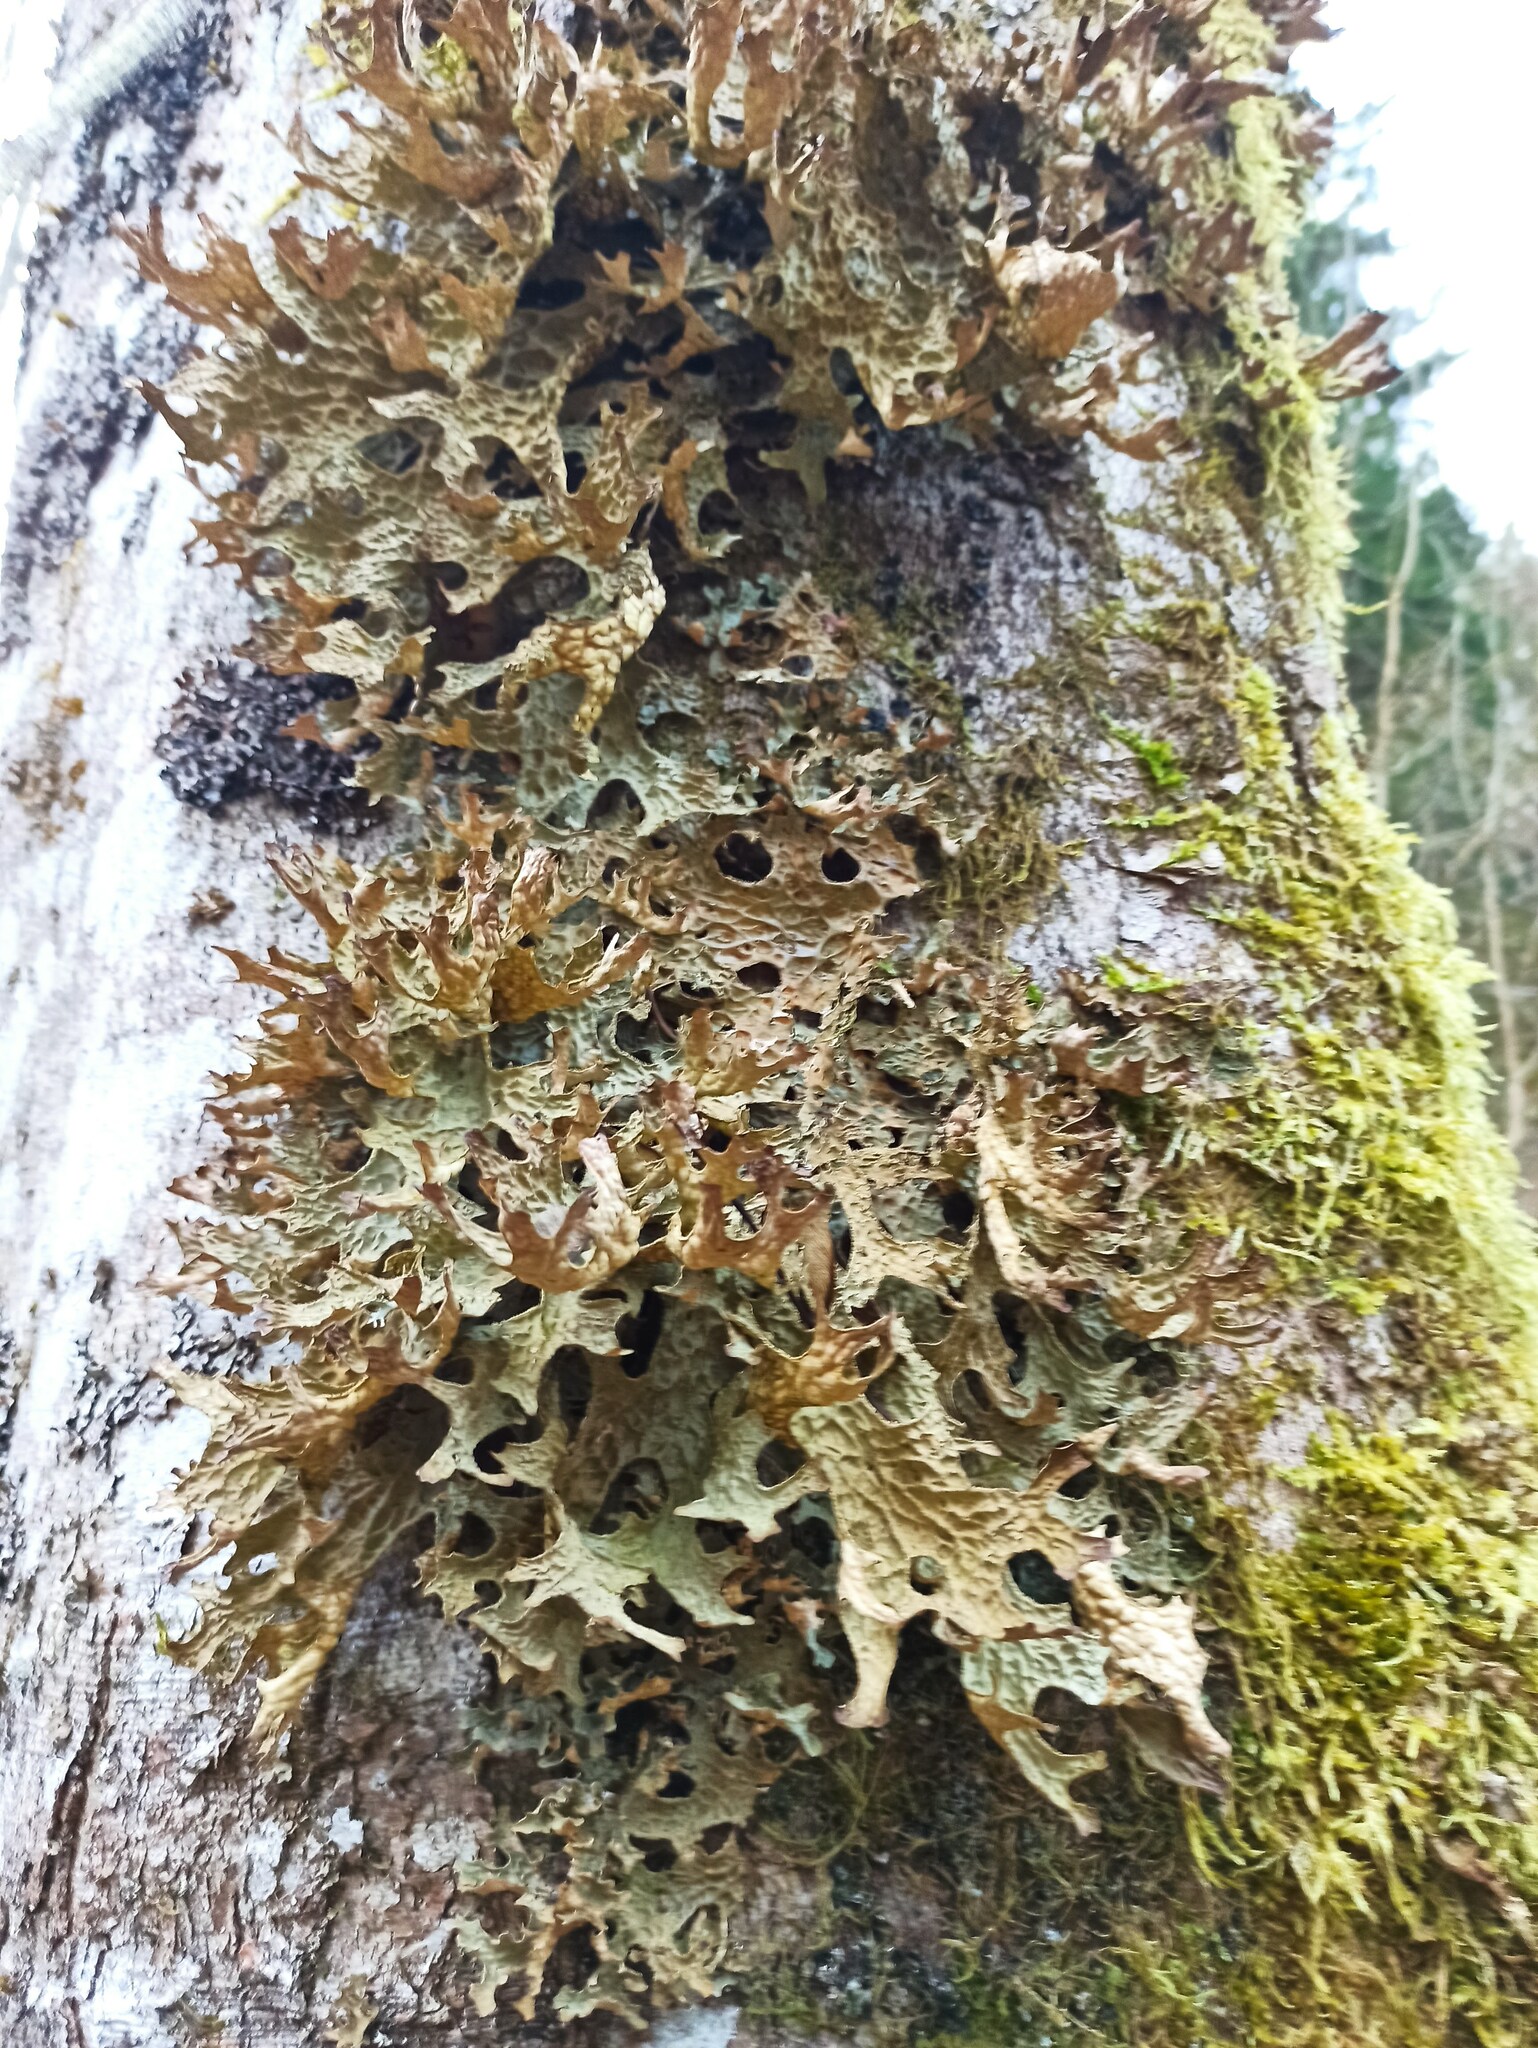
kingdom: Fungi
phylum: Ascomycota
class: Lecanoromycetes
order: Peltigerales
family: Lobariaceae
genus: Lobaria
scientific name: Lobaria pulmonaria
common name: Lungwort
